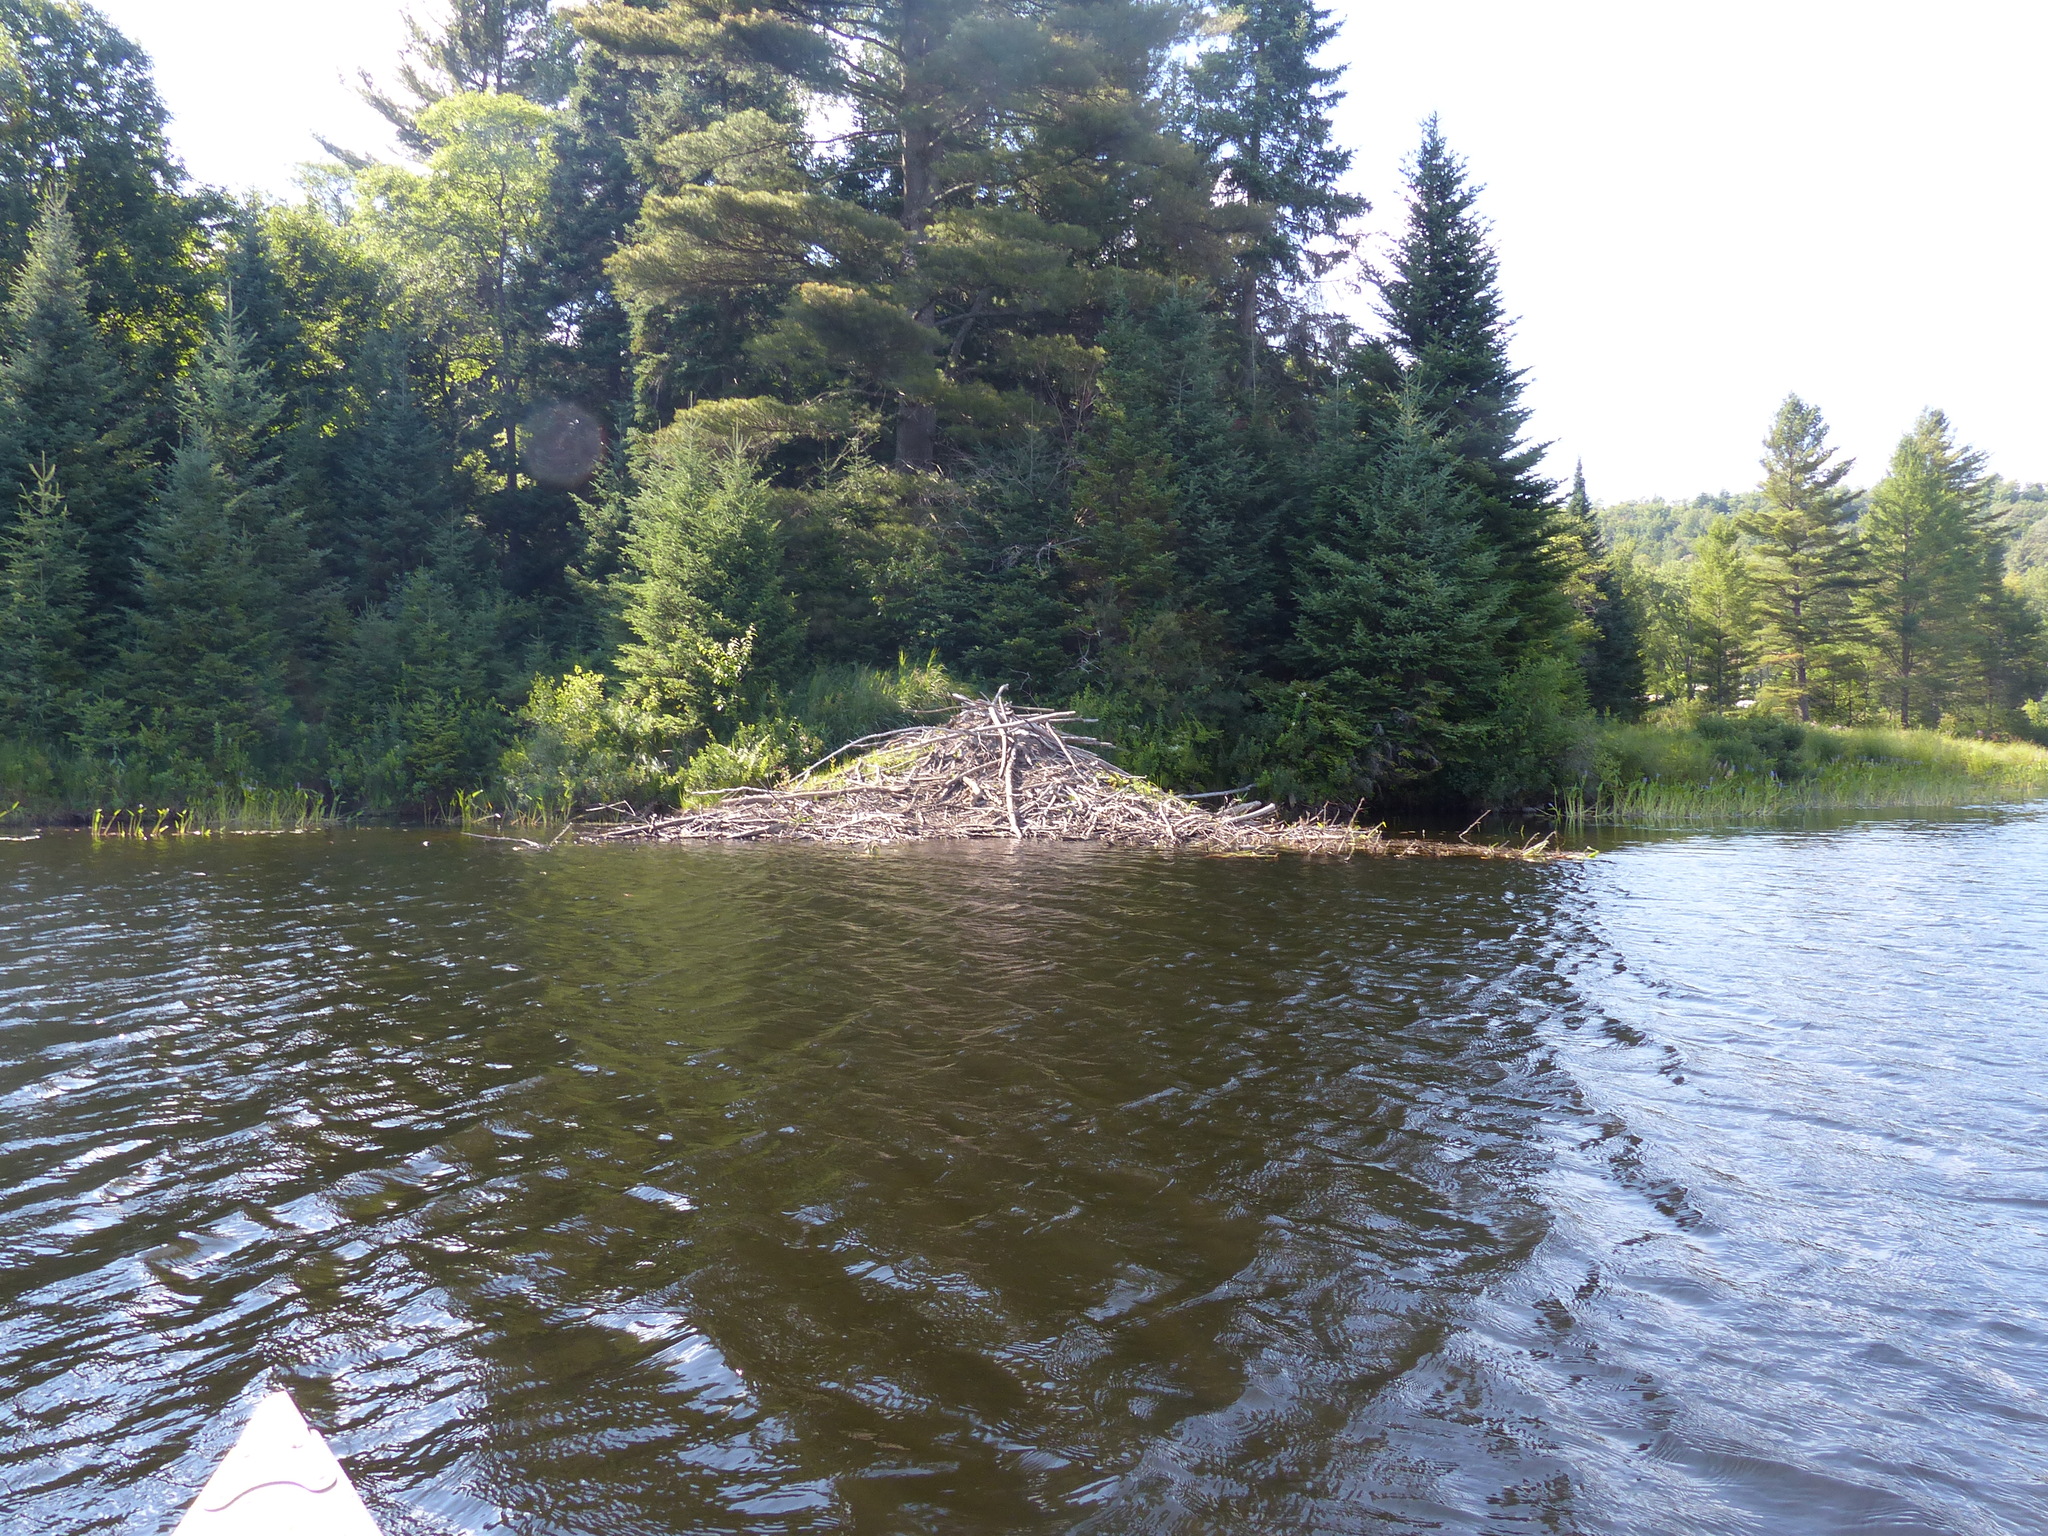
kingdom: Animalia
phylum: Chordata
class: Mammalia
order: Rodentia
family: Castoridae
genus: Castor
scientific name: Castor canadensis
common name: American beaver
